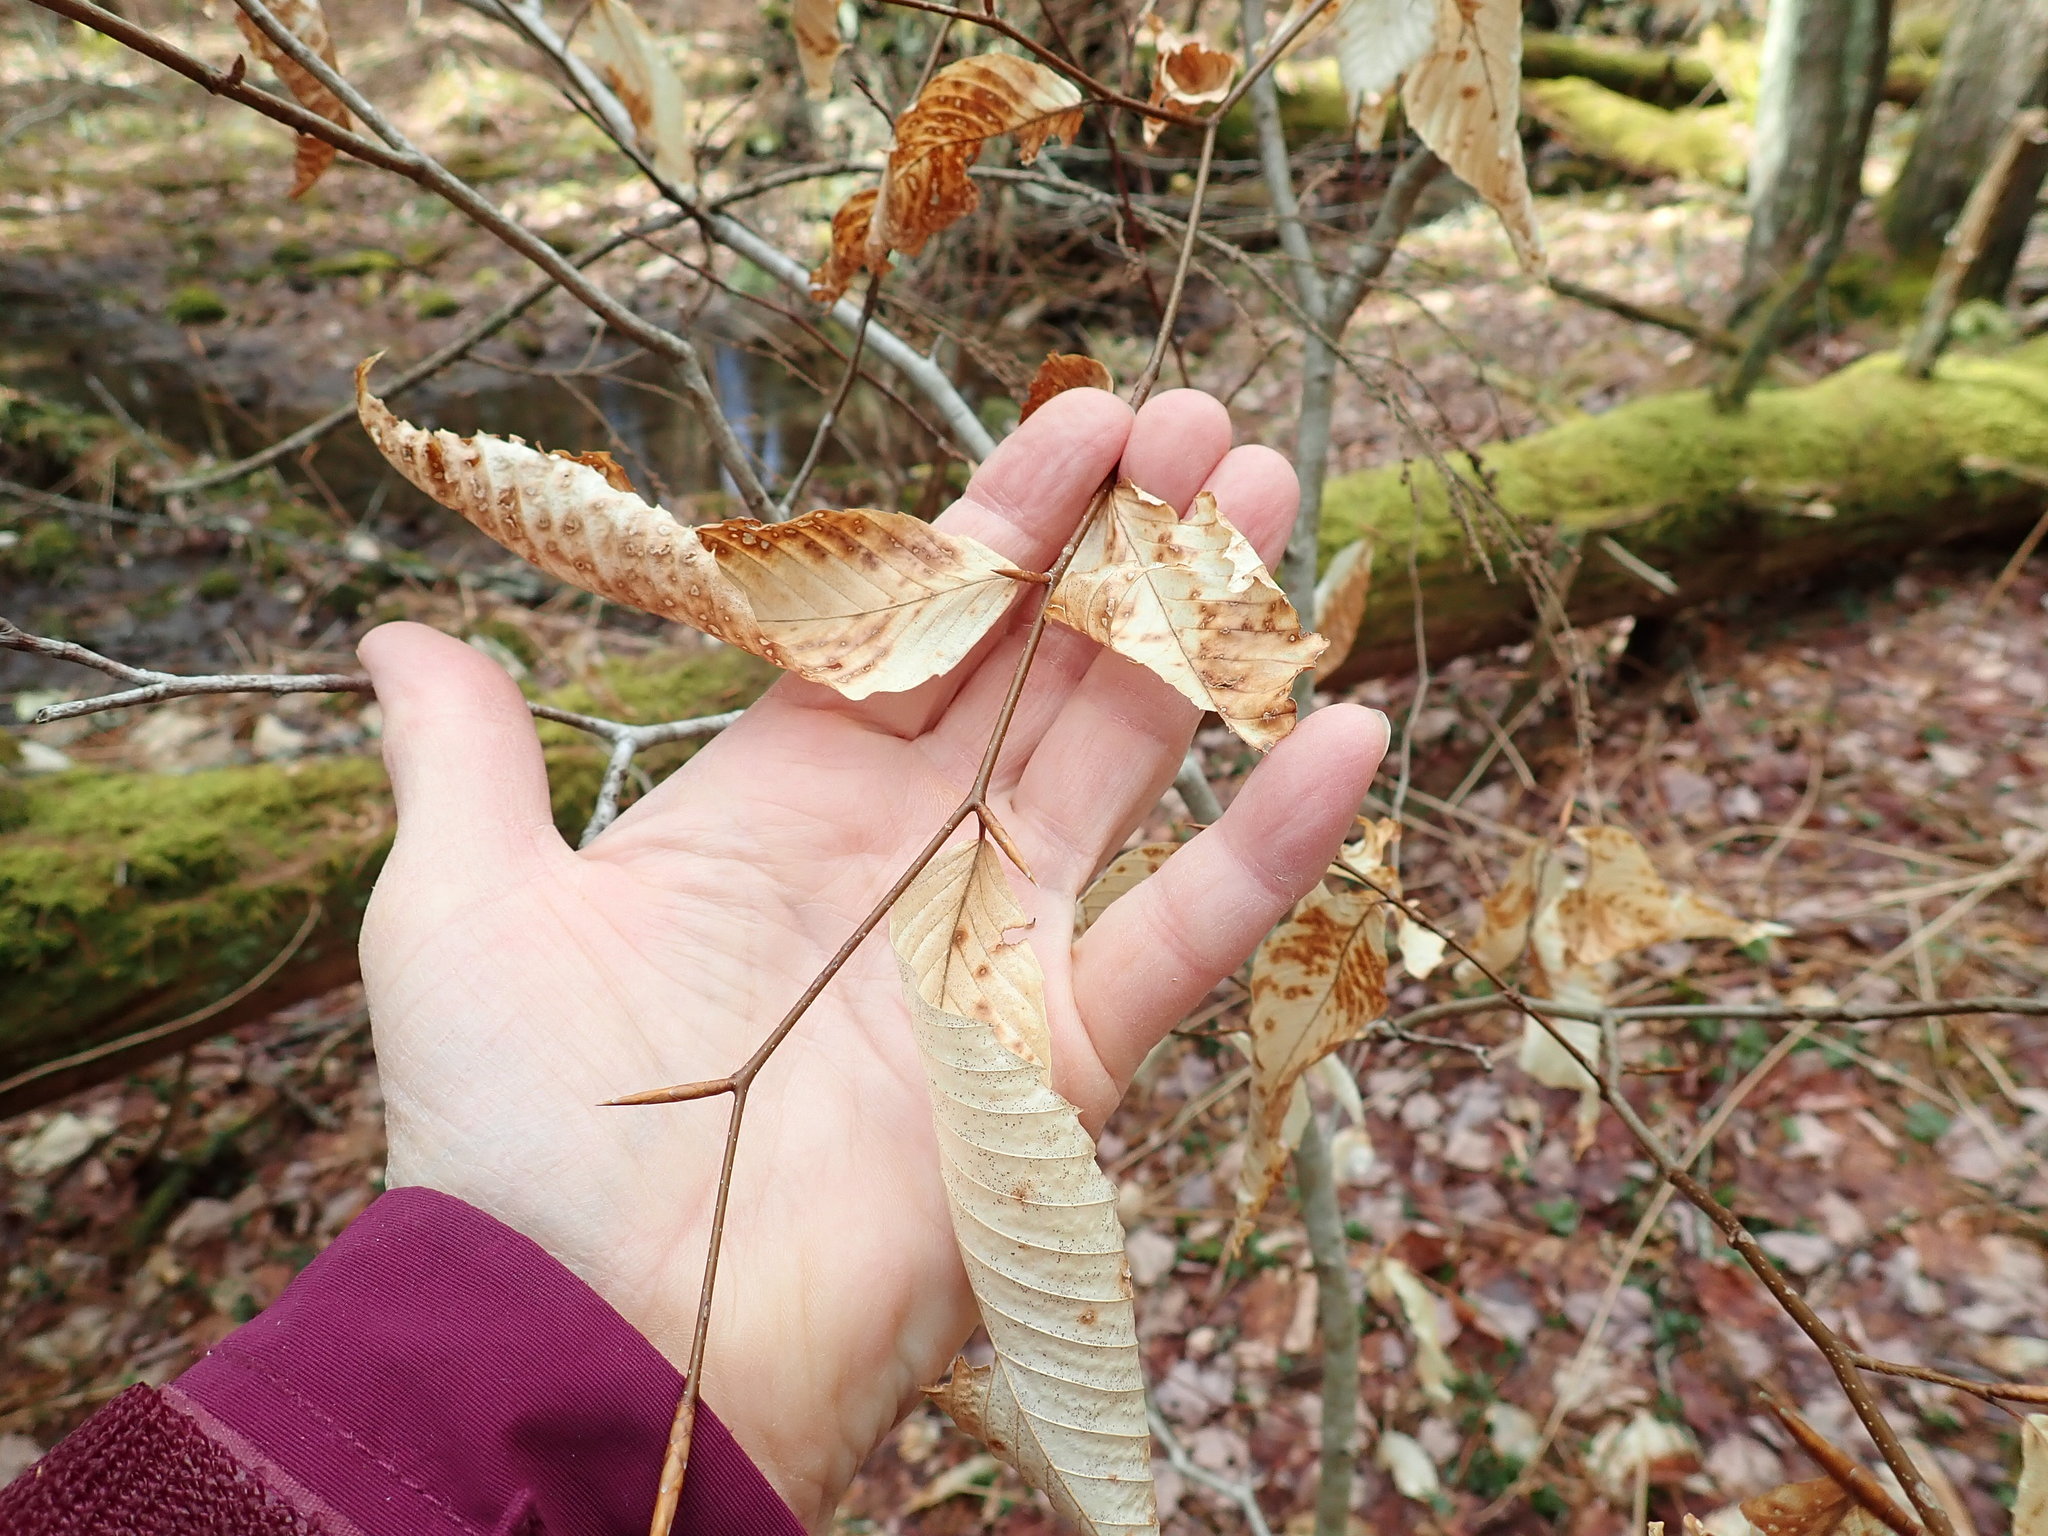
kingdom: Plantae
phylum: Tracheophyta
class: Magnoliopsida
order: Fagales
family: Fagaceae
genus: Fagus
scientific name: Fagus grandifolia
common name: American beech
